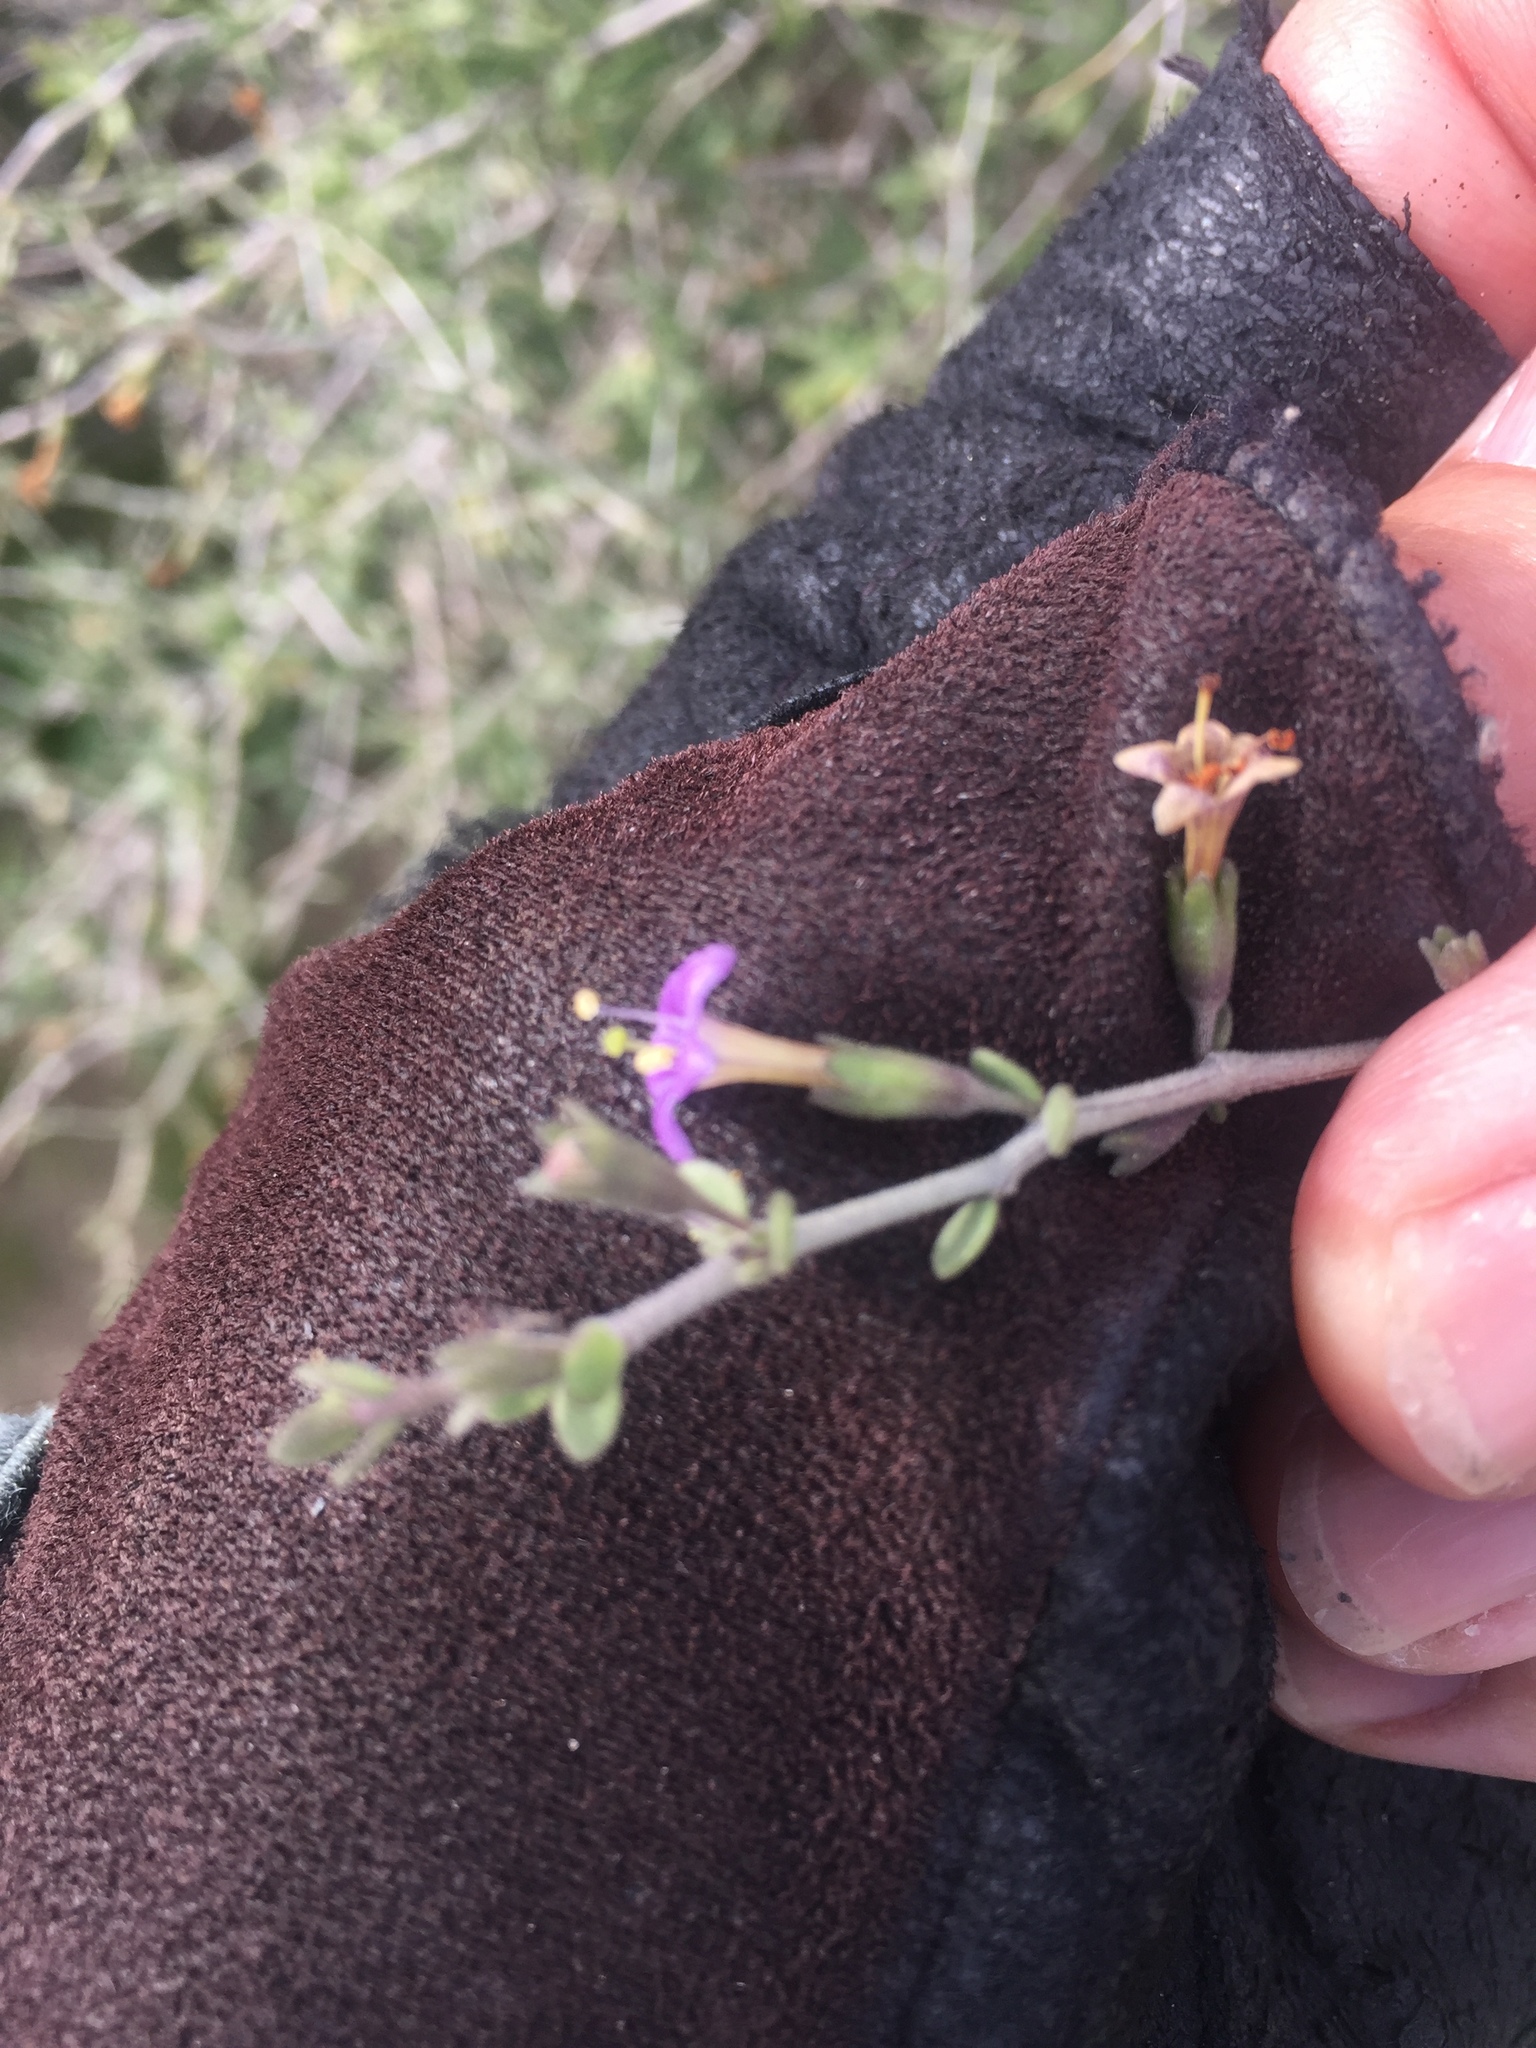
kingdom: Plantae
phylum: Tracheophyta
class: Magnoliopsida
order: Solanales
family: Solanaceae
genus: Lycium
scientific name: Lycium parishii
